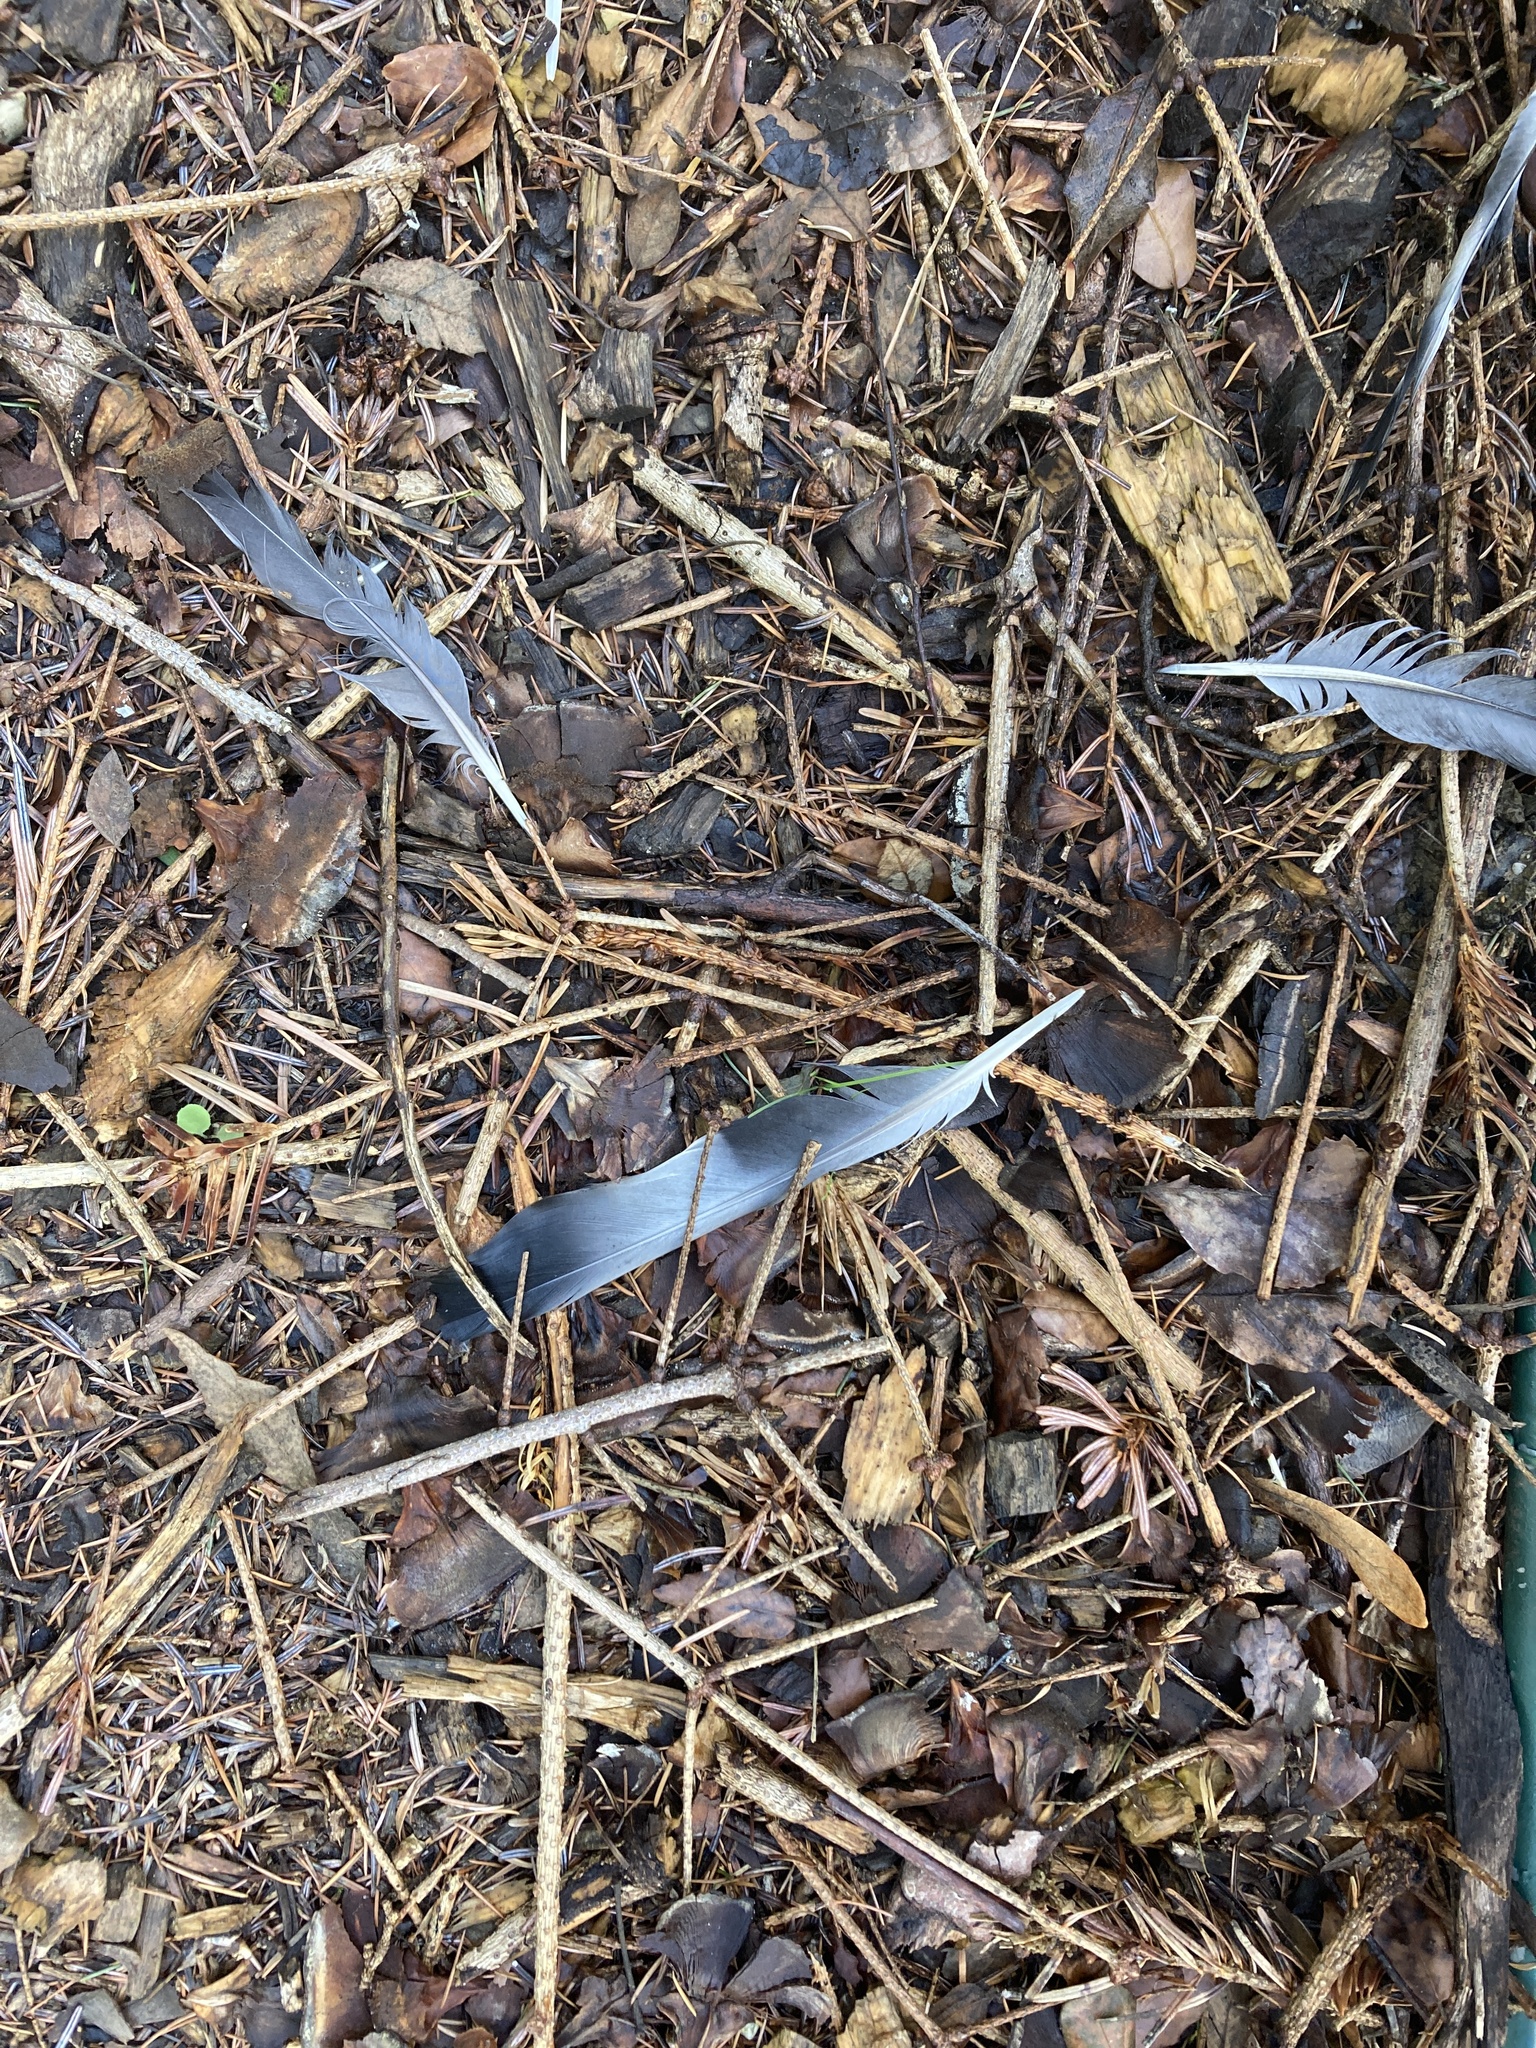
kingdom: Animalia
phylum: Chordata
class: Aves
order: Columbiformes
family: Columbidae
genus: Columba
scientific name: Columba palumbus
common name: Common wood pigeon
